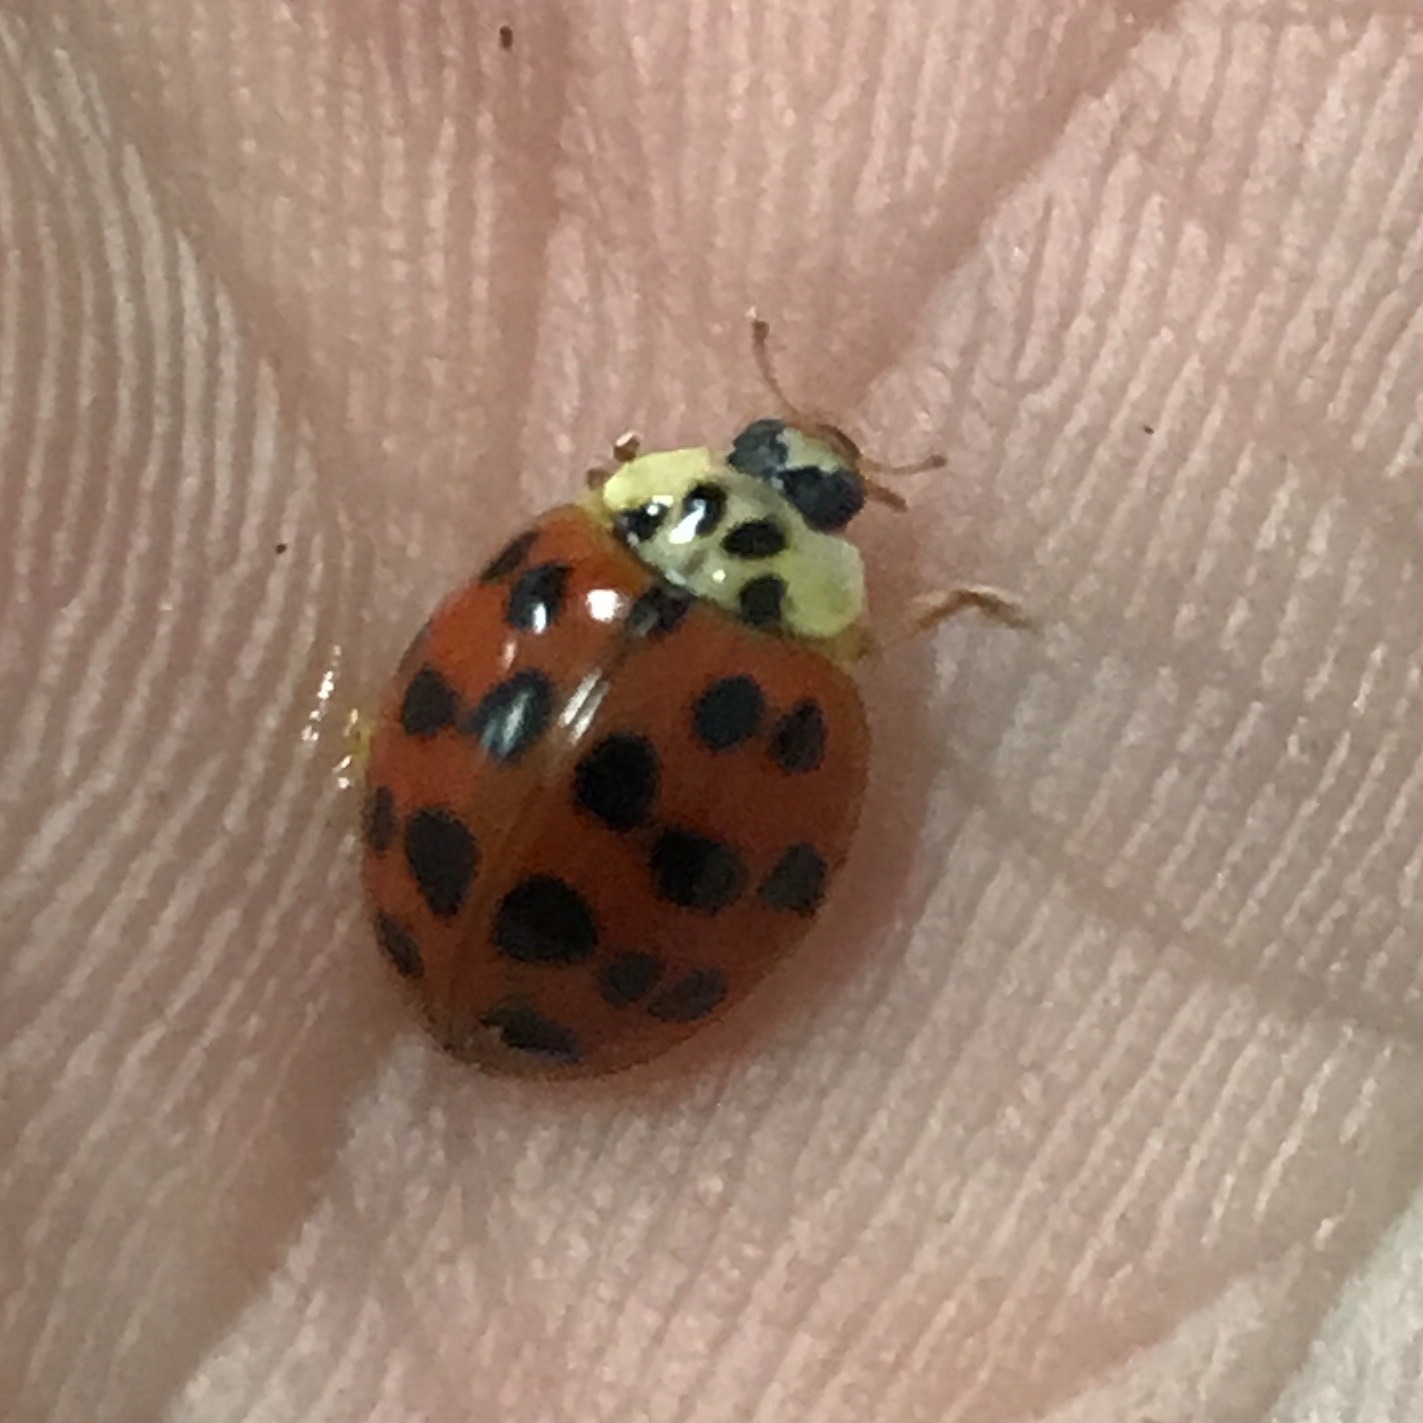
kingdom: Animalia
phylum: Arthropoda
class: Insecta
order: Coleoptera
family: Coccinellidae
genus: Harmonia
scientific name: Harmonia axyridis
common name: Harlequin ladybird
